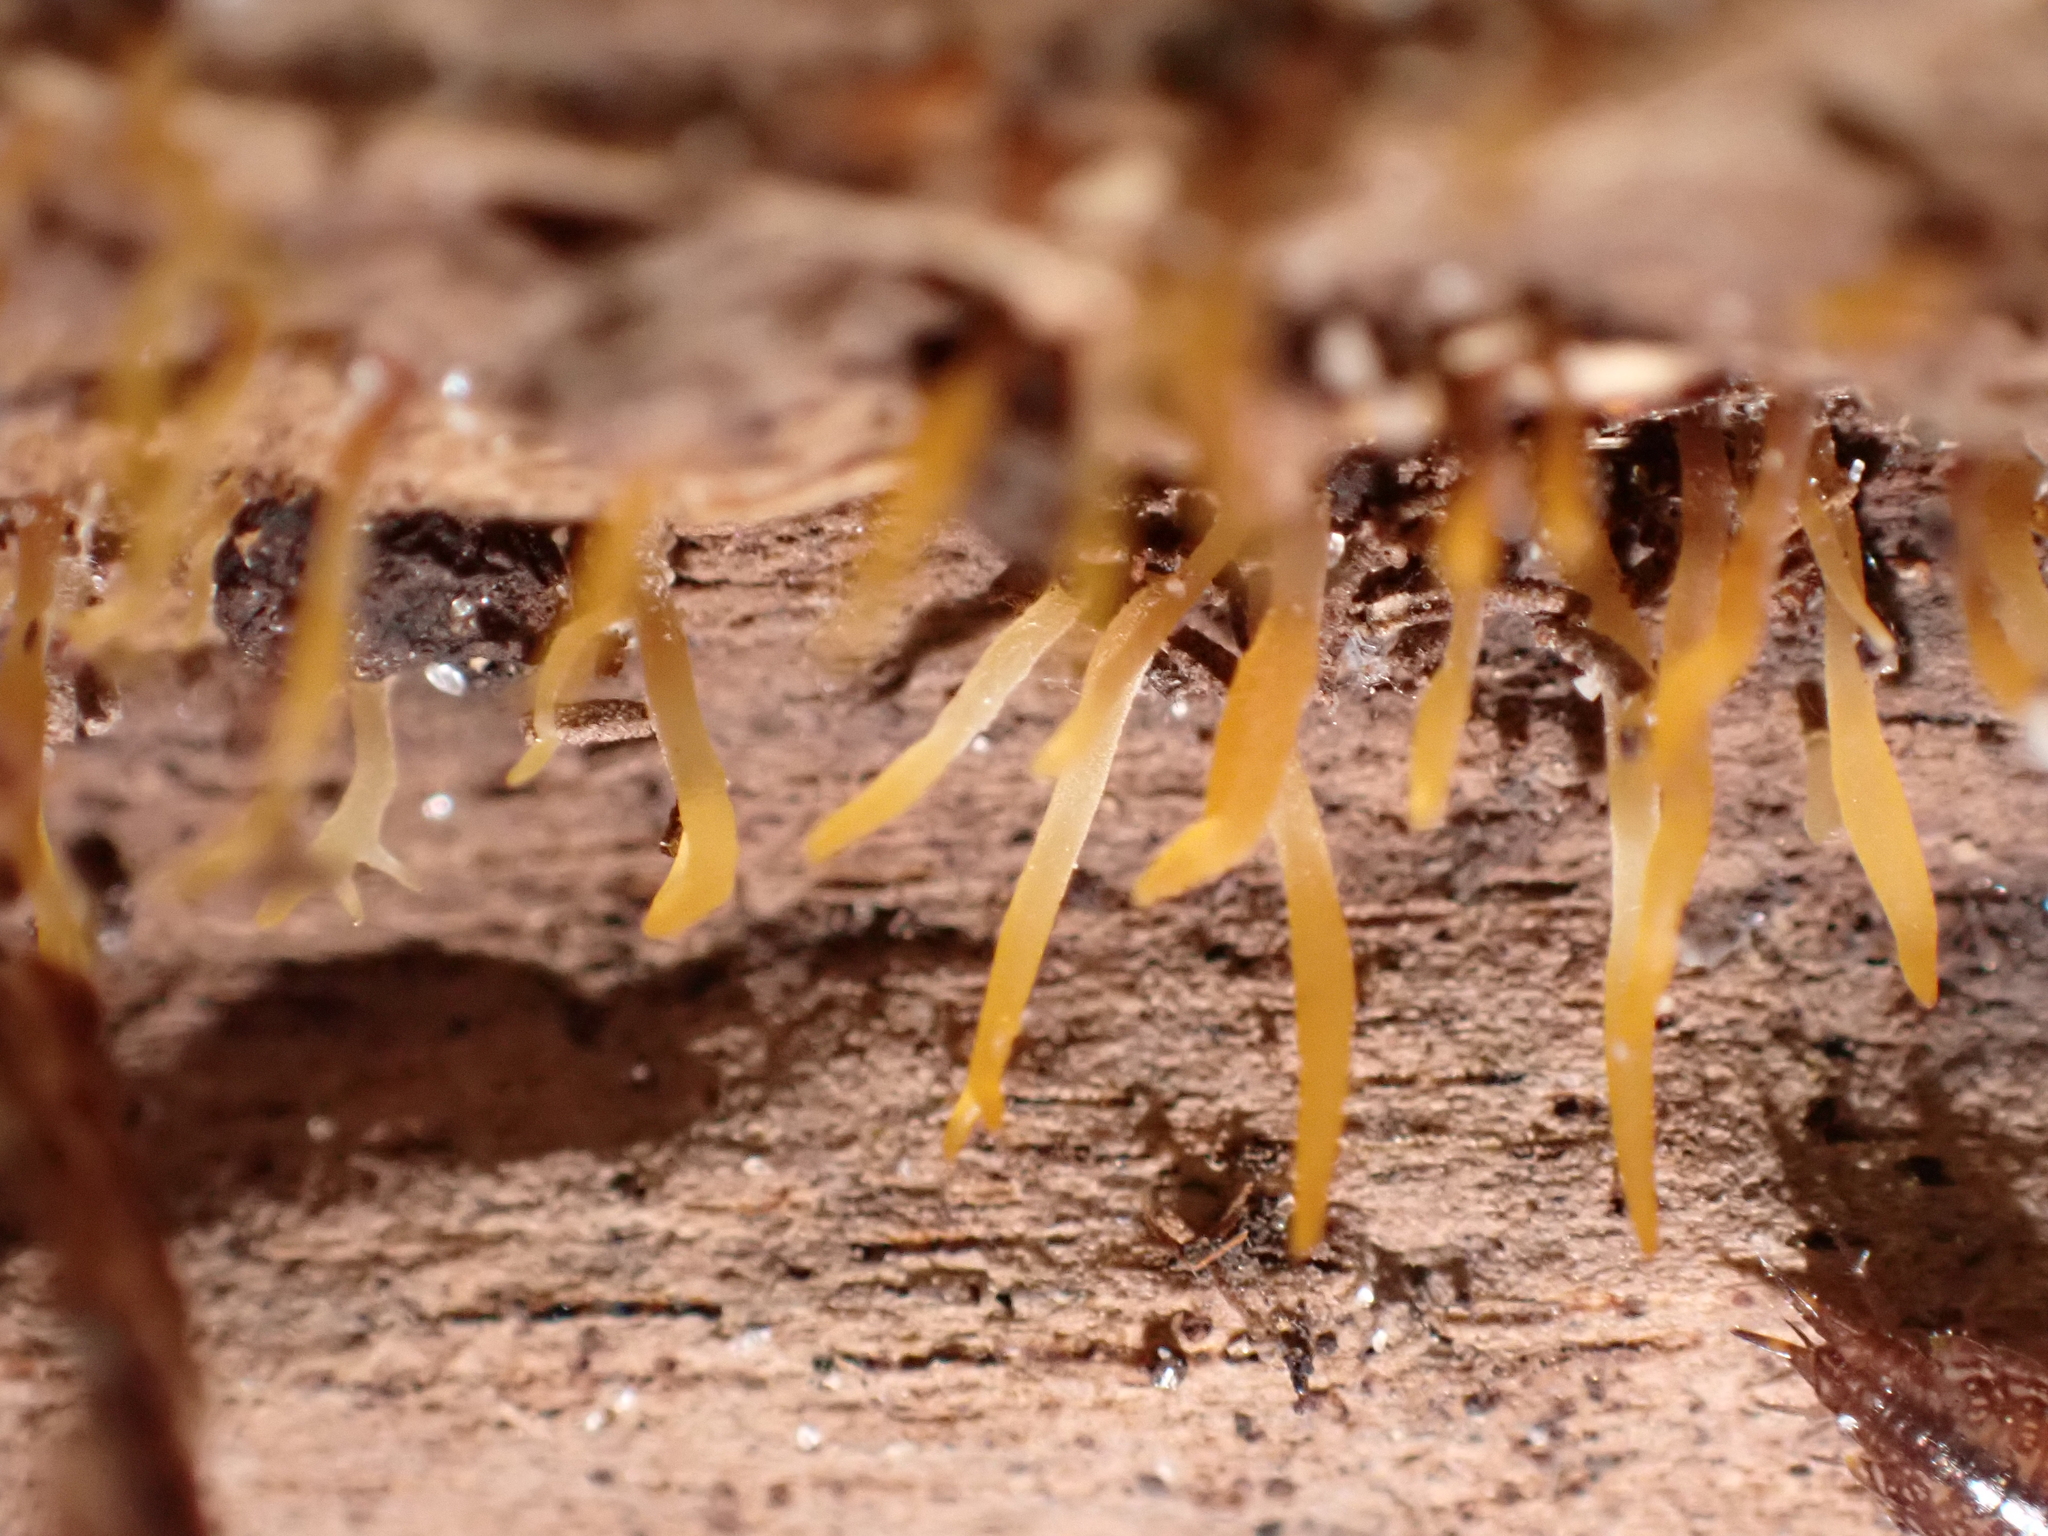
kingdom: Fungi
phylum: Basidiomycota
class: Dacrymycetes
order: Dacrymycetales
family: Dacrymycetaceae
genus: Calocera
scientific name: Calocera cornea
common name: Small stagshorn
